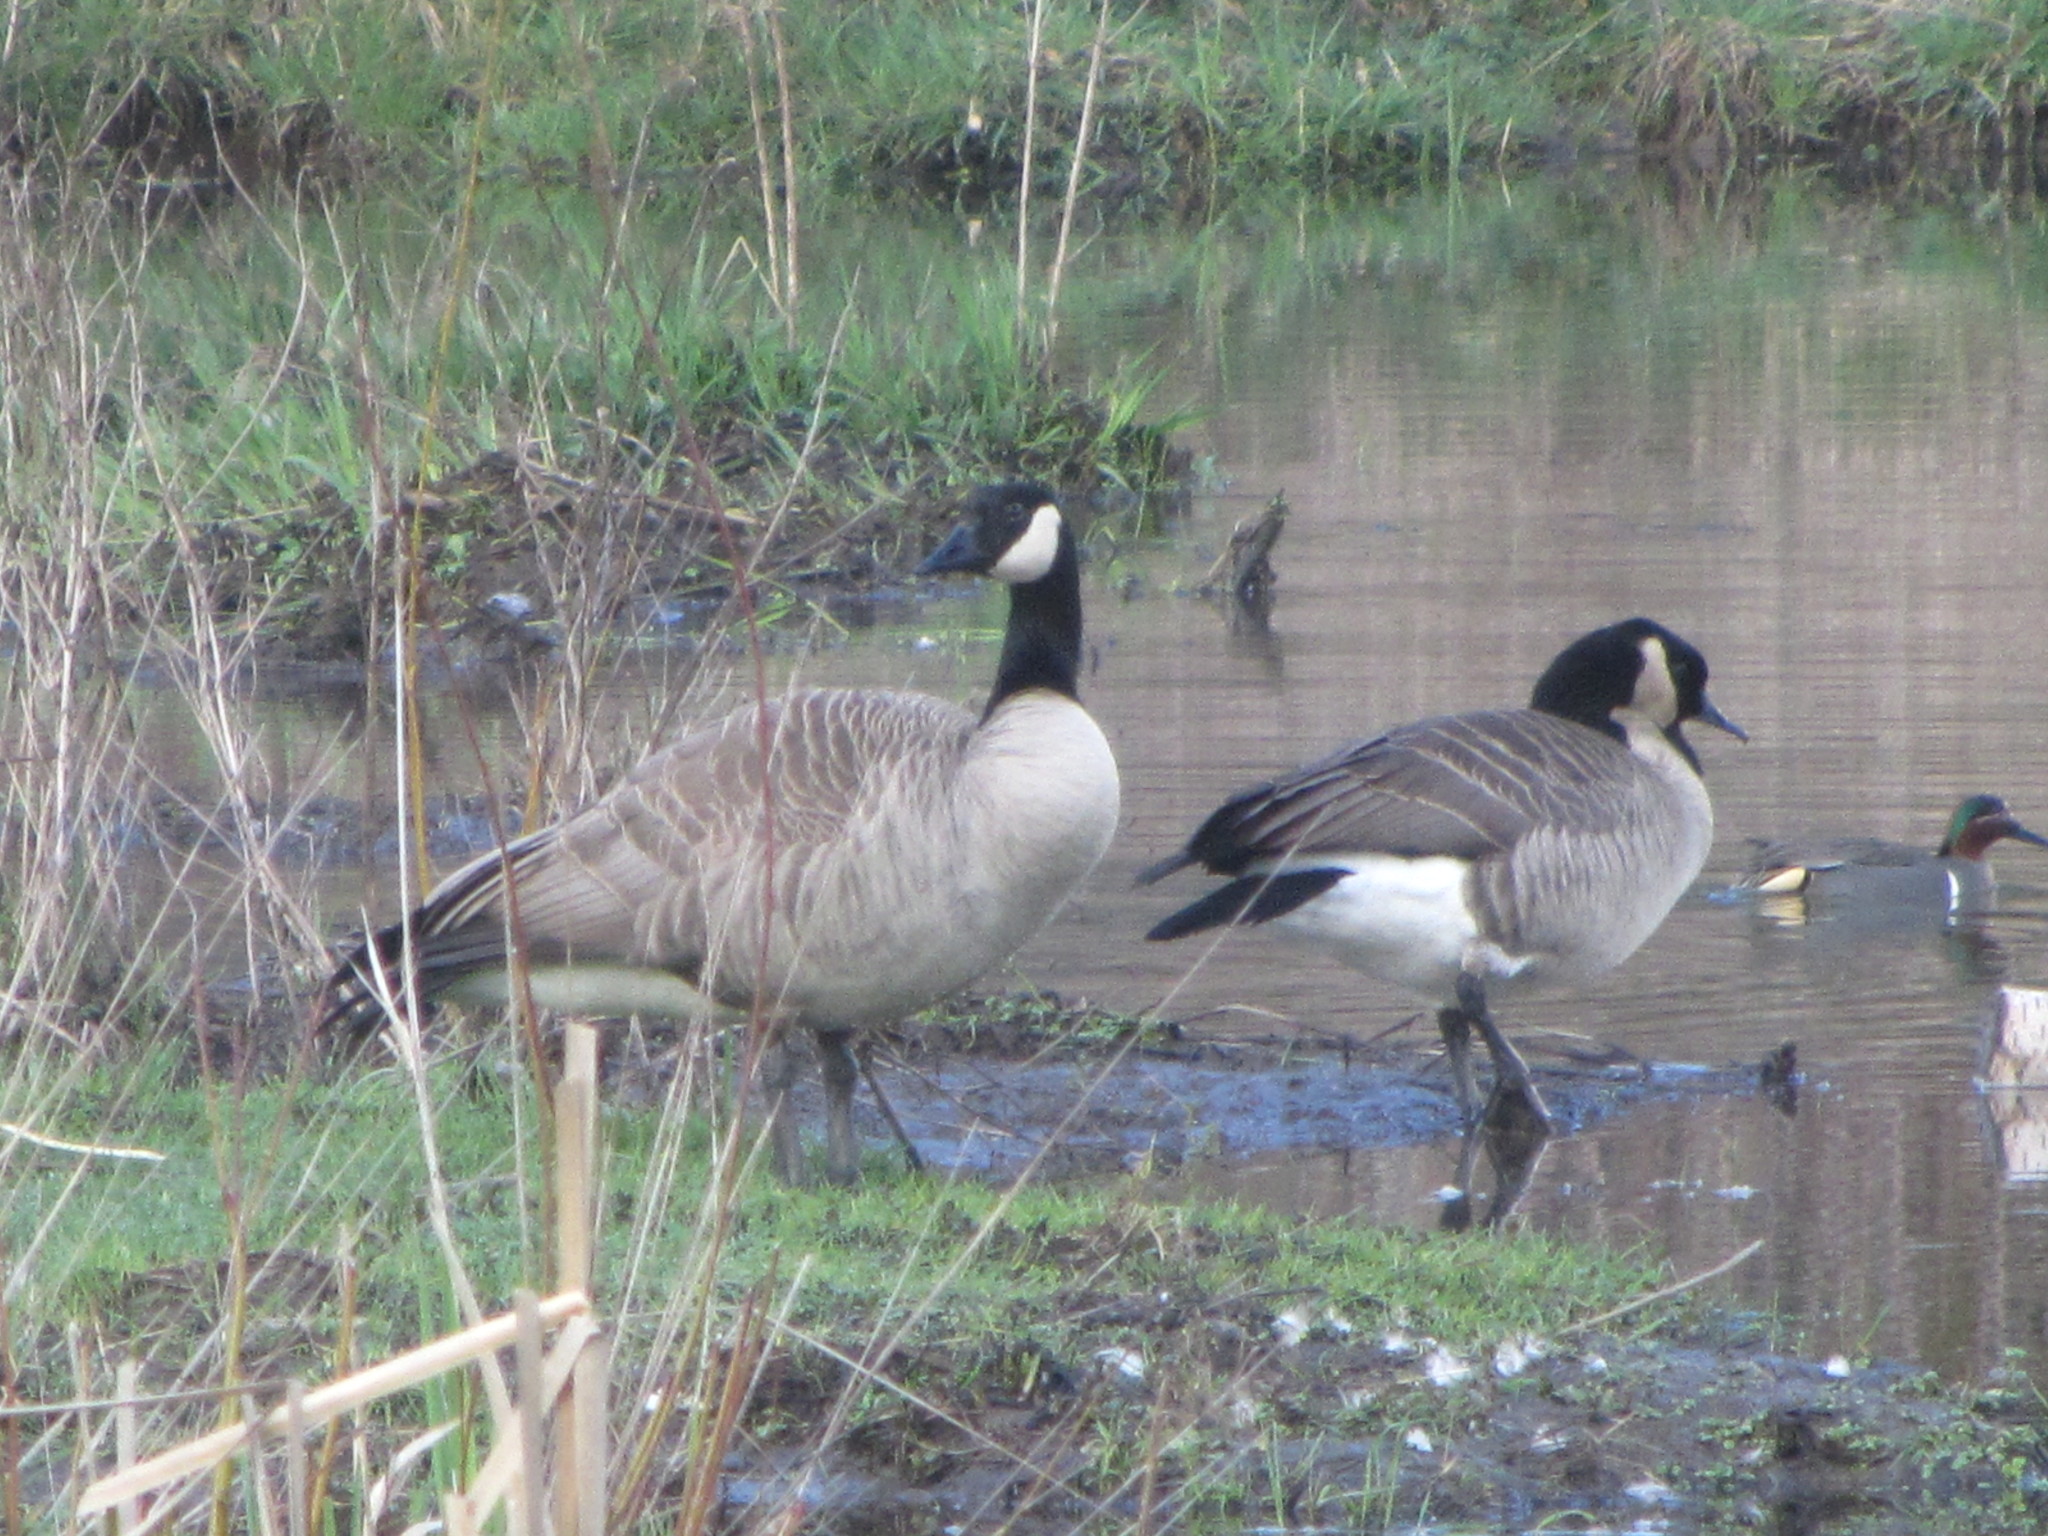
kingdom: Animalia
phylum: Chordata
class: Aves
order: Anseriformes
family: Anatidae
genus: Branta
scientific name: Branta canadensis
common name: Canada goose
